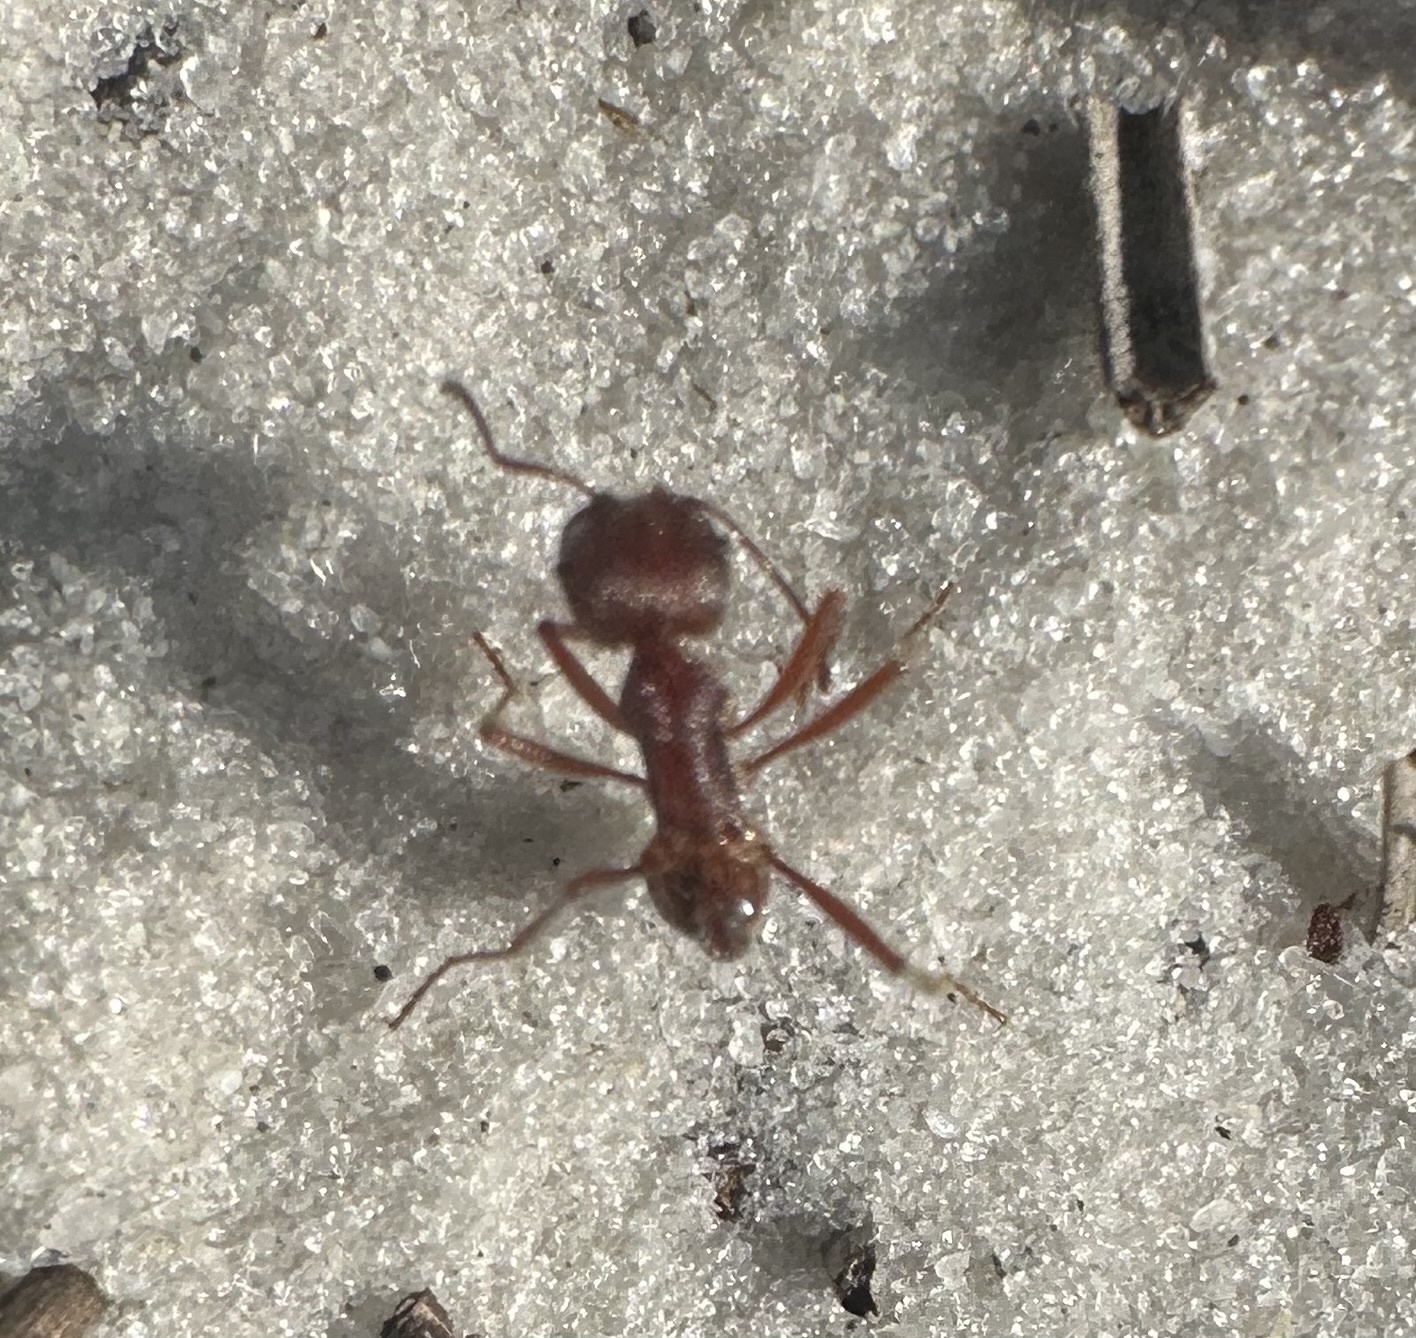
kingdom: Animalia
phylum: Arthropoda
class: Insecta
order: Hymenoptera
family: Formicidae
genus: Pogonomyrmex
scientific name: Pogonomyrmex badius
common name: Florida harvester ant
